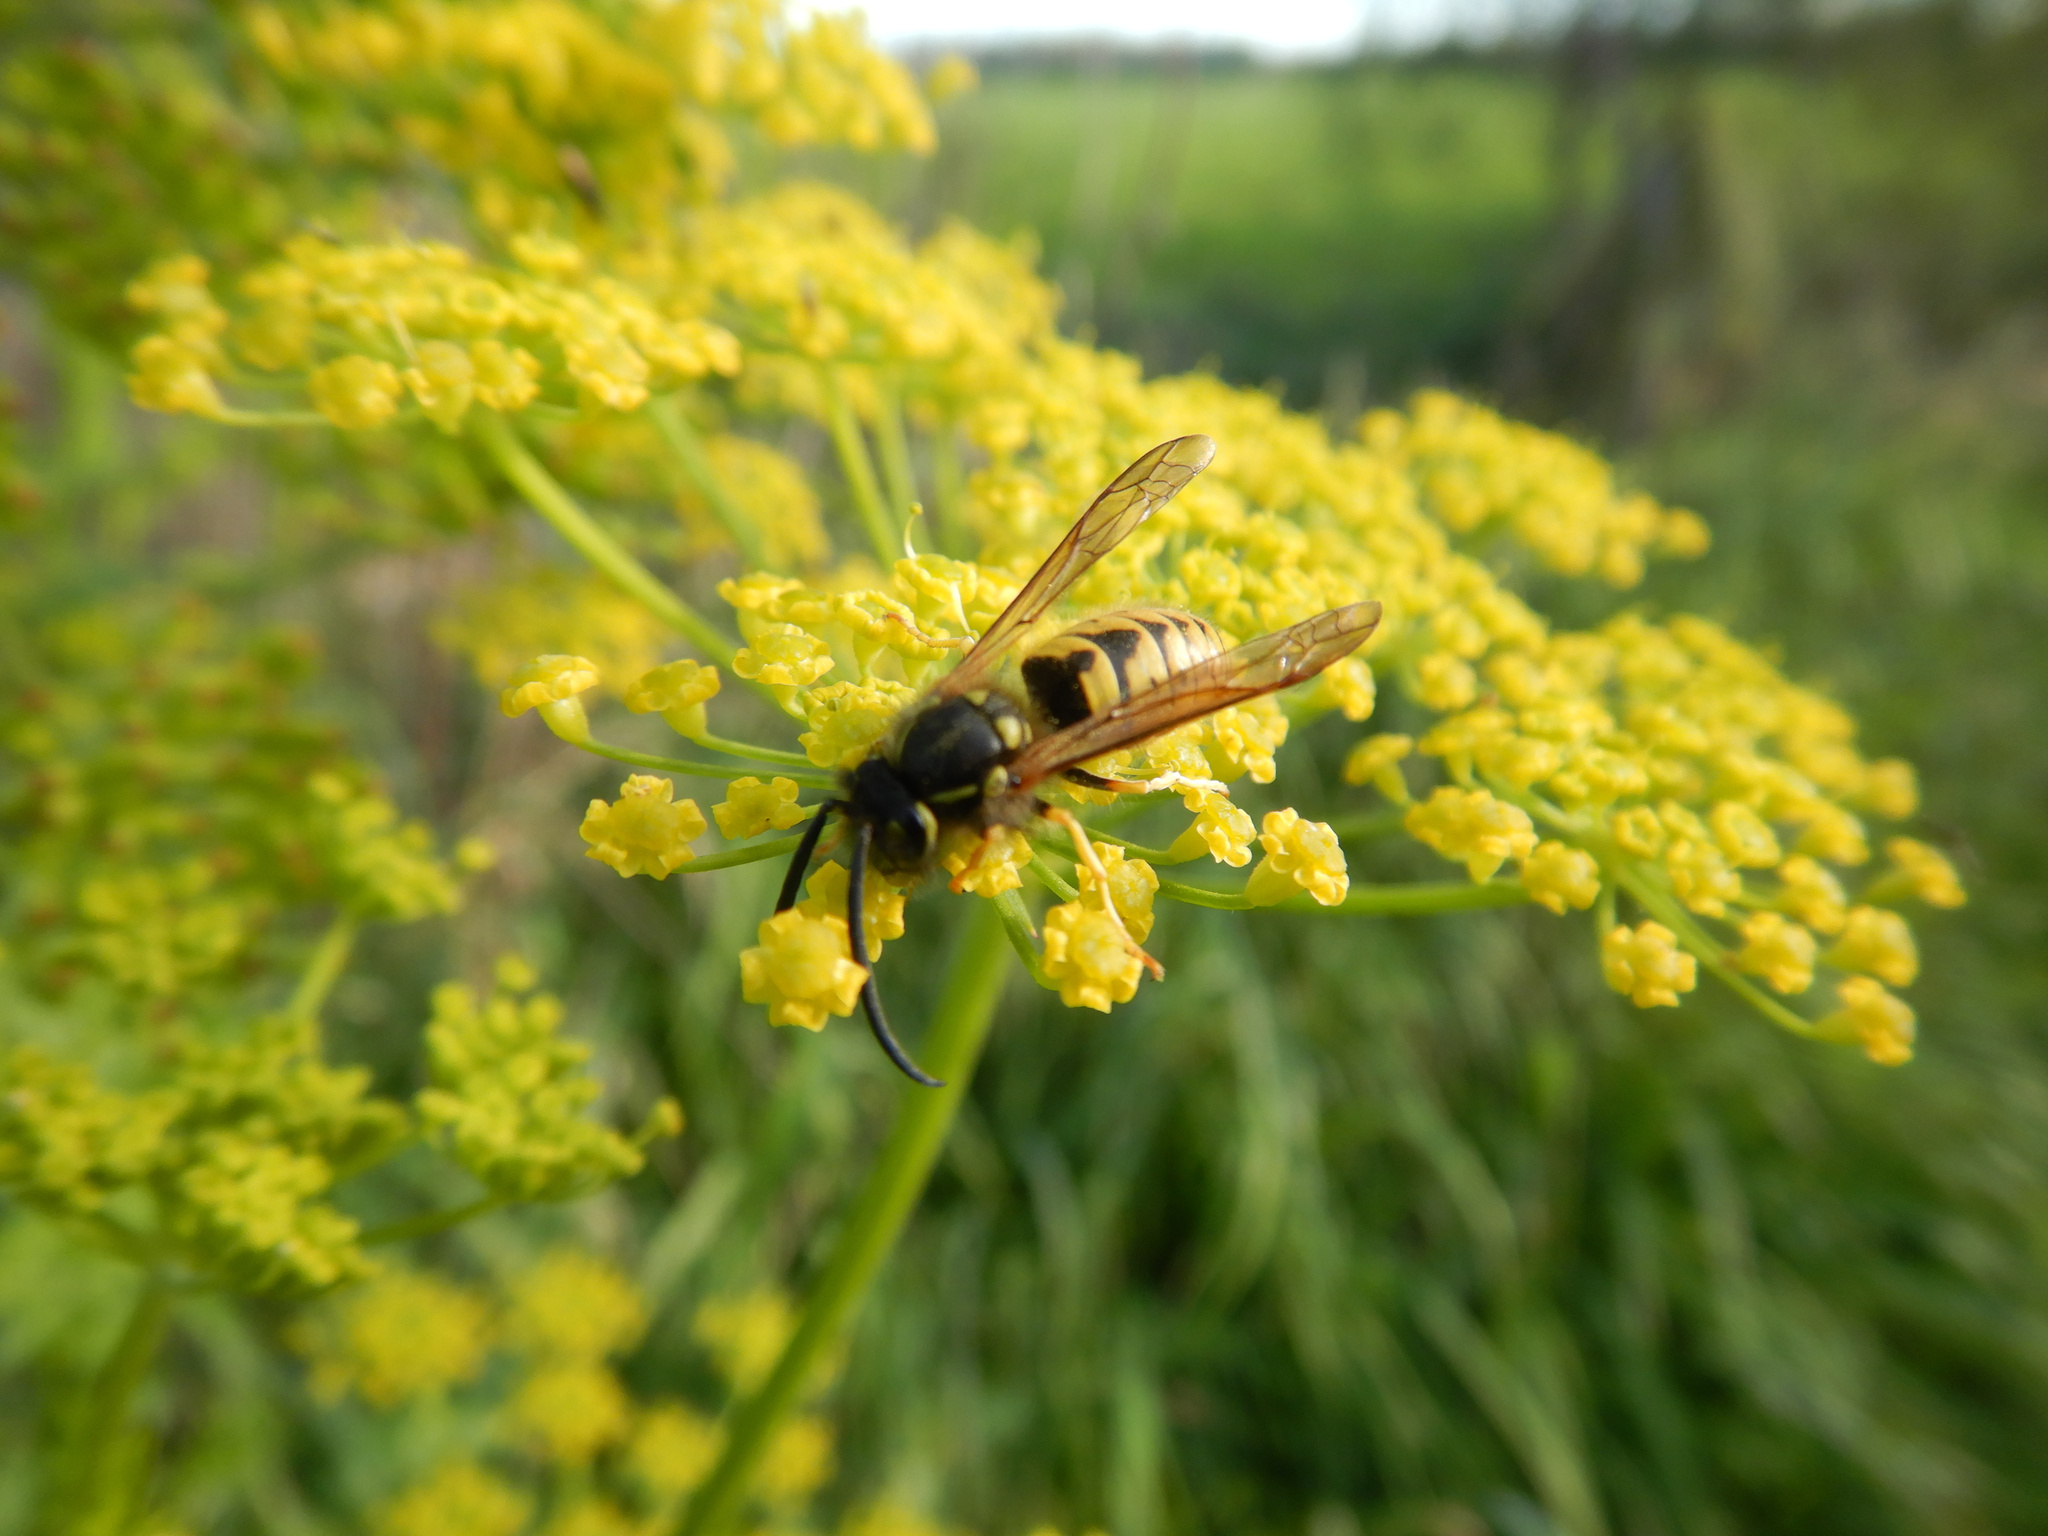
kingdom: Animalia
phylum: Arthropoda
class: Insecta
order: Hymenoptera
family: Vespidae
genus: Vespula
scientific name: Vespula vulgaris
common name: Common wasp
